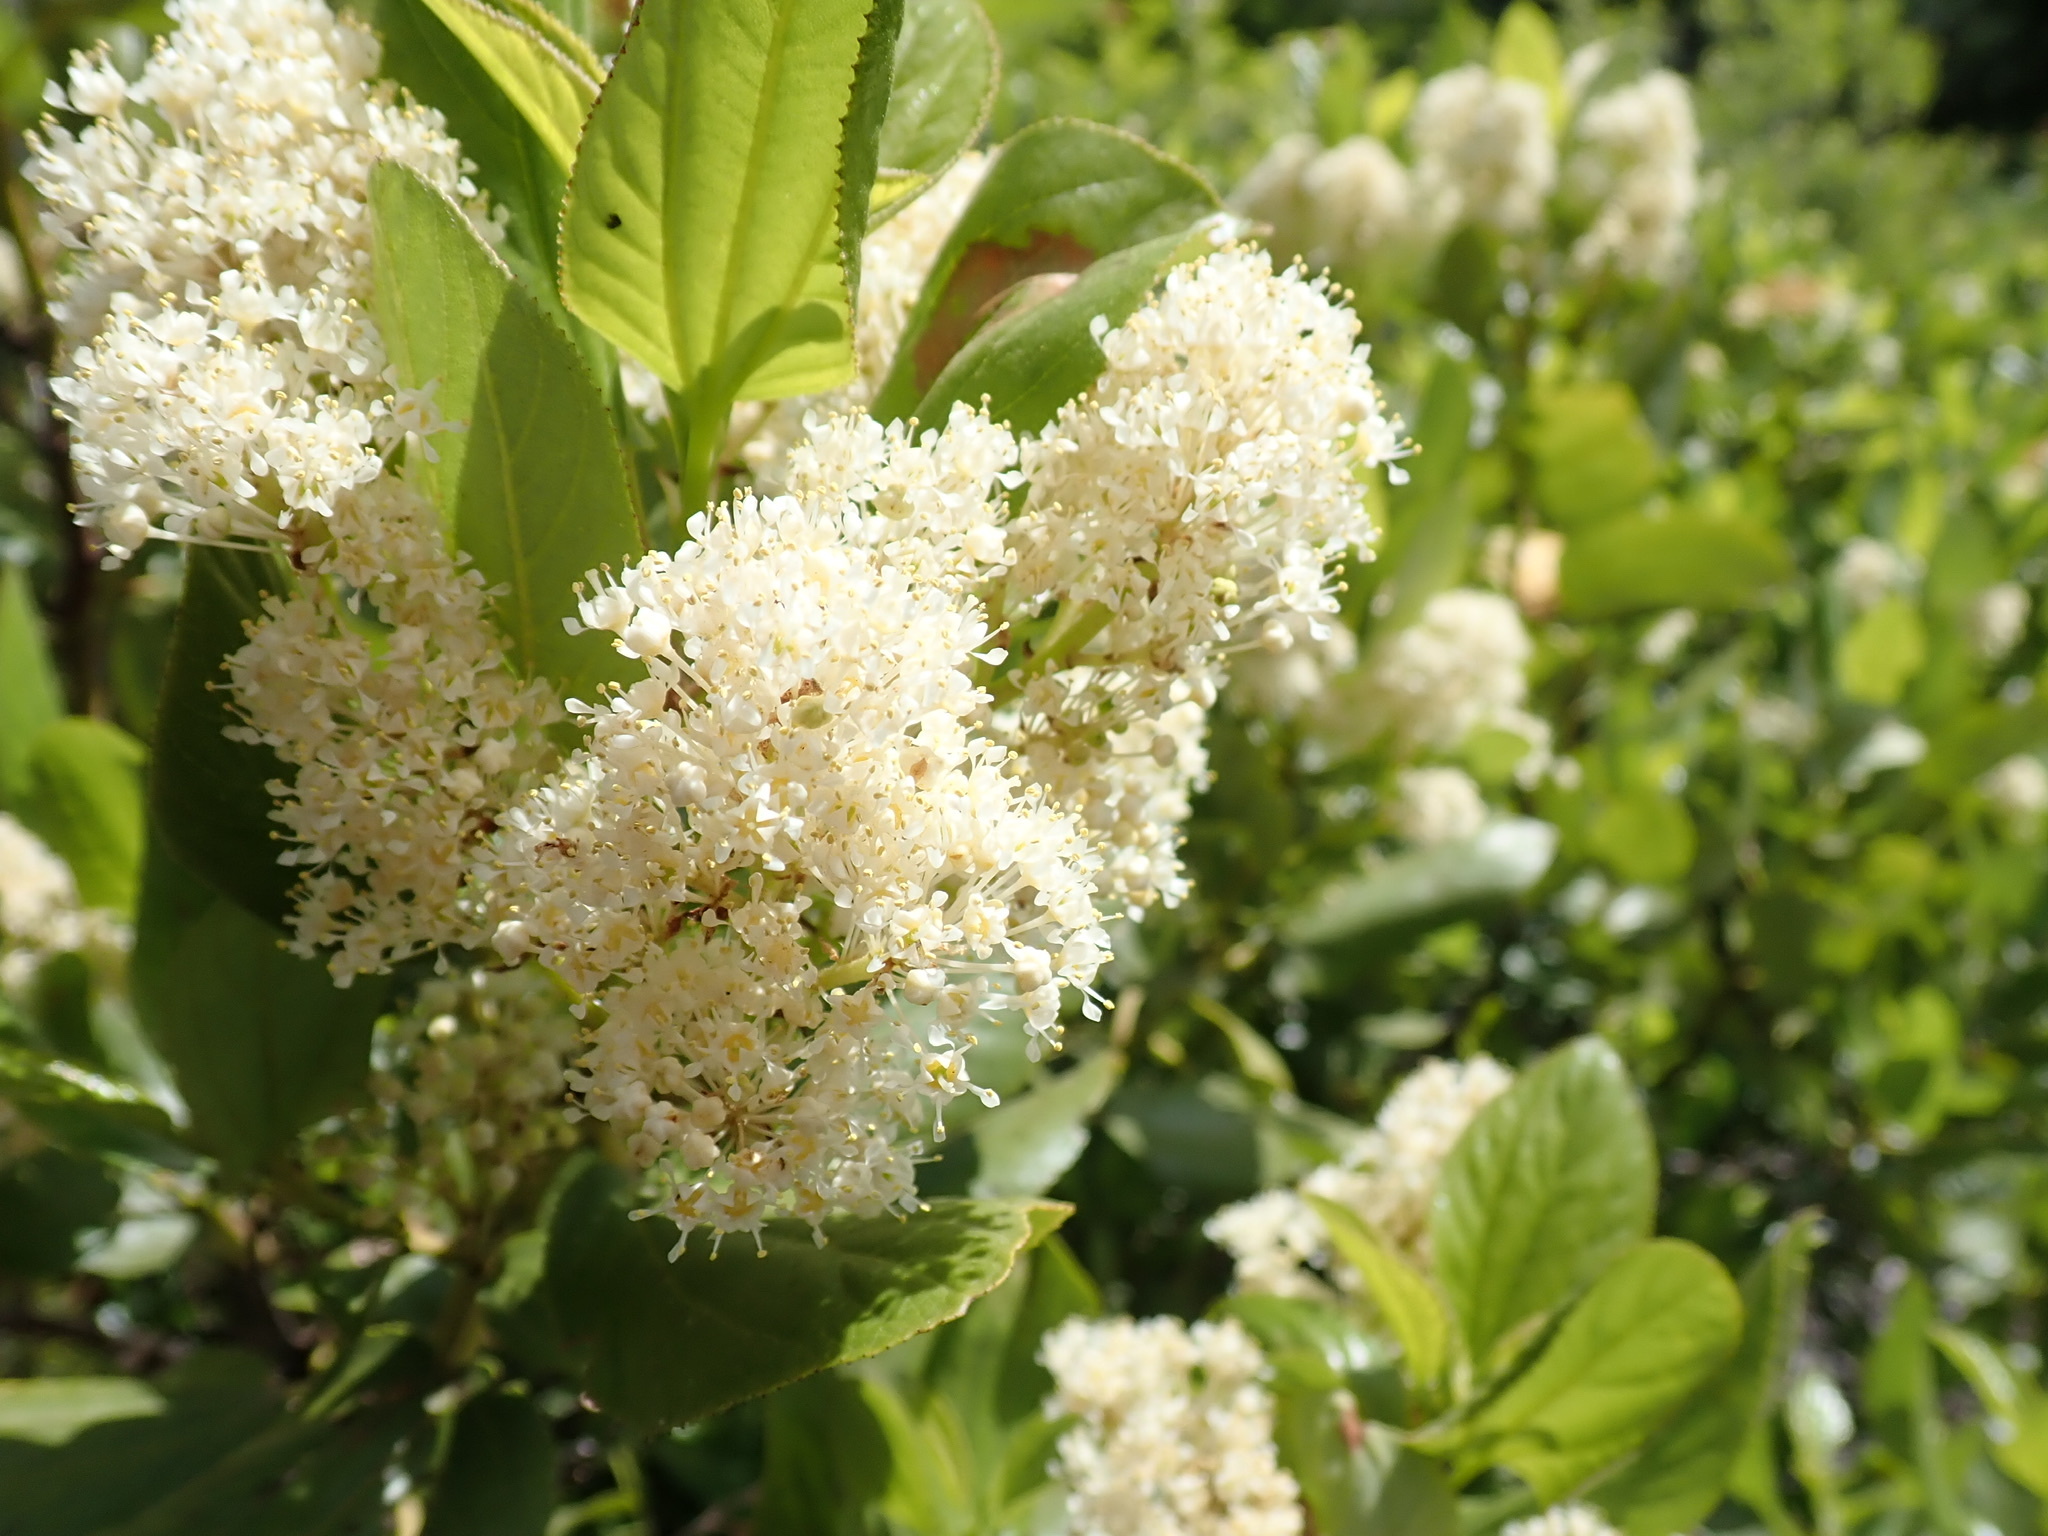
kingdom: Plantae
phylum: Tracheophyta
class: Magnoliopsida
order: Rosales
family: Rhamnaceae
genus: Ceanothus
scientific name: Ceanothus velutinus
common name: Snowbrush
